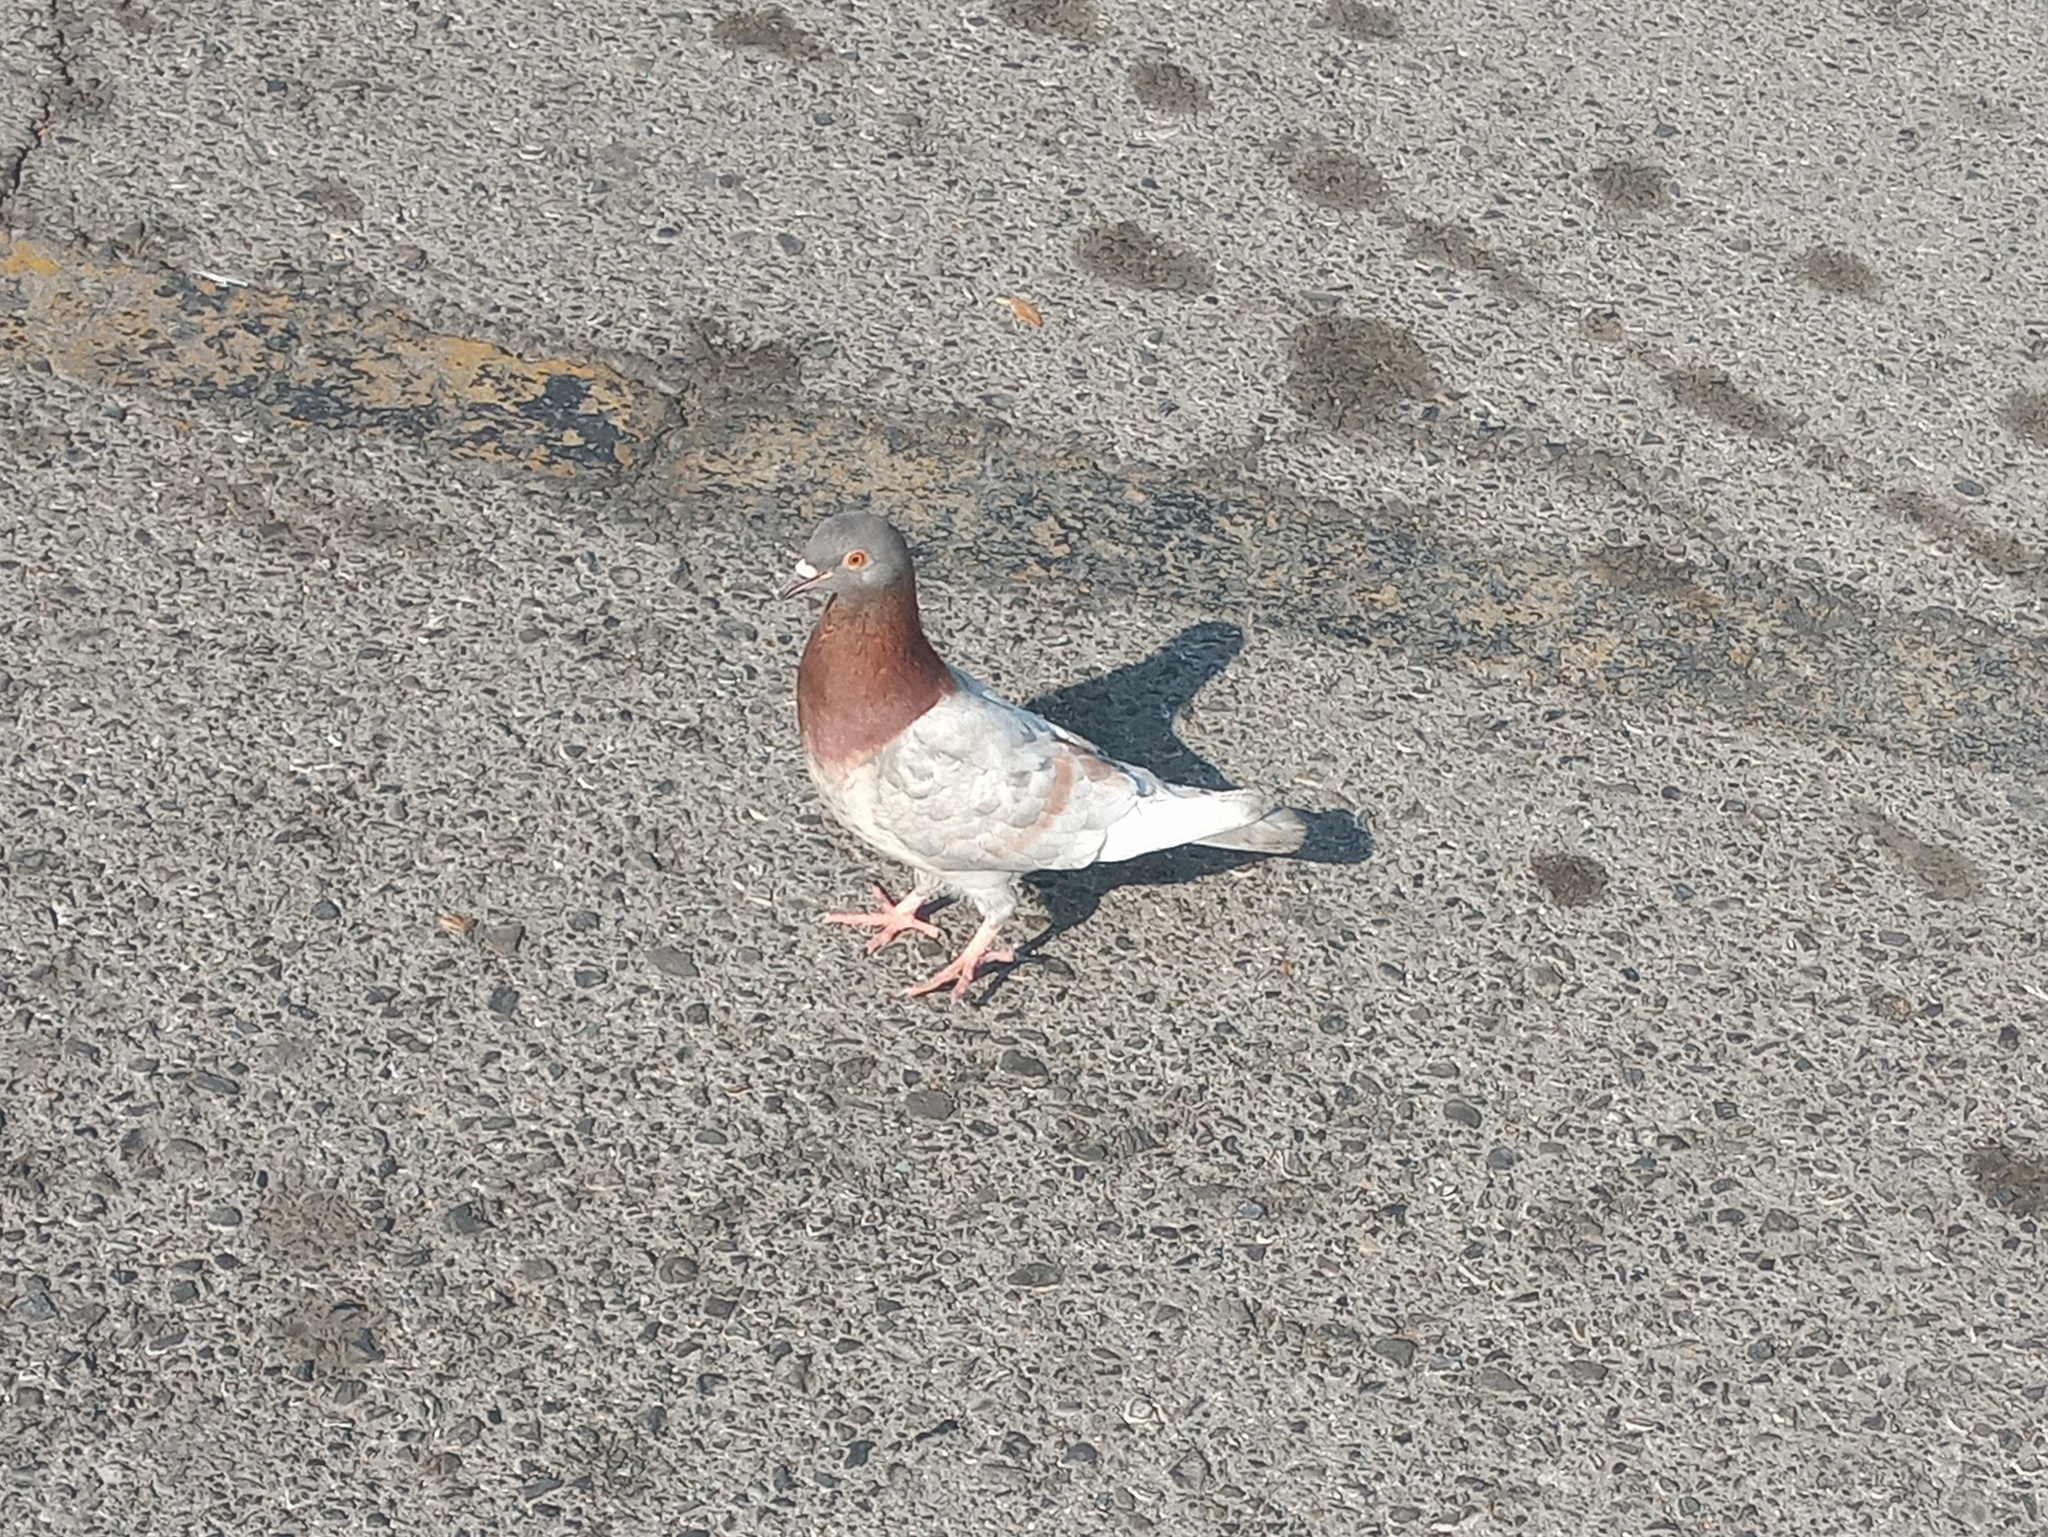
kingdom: Animalia
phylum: Chordata
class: Aves
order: Columbiformes
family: Columbidae
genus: Columba
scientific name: Columba livia
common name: Rock pigeon
